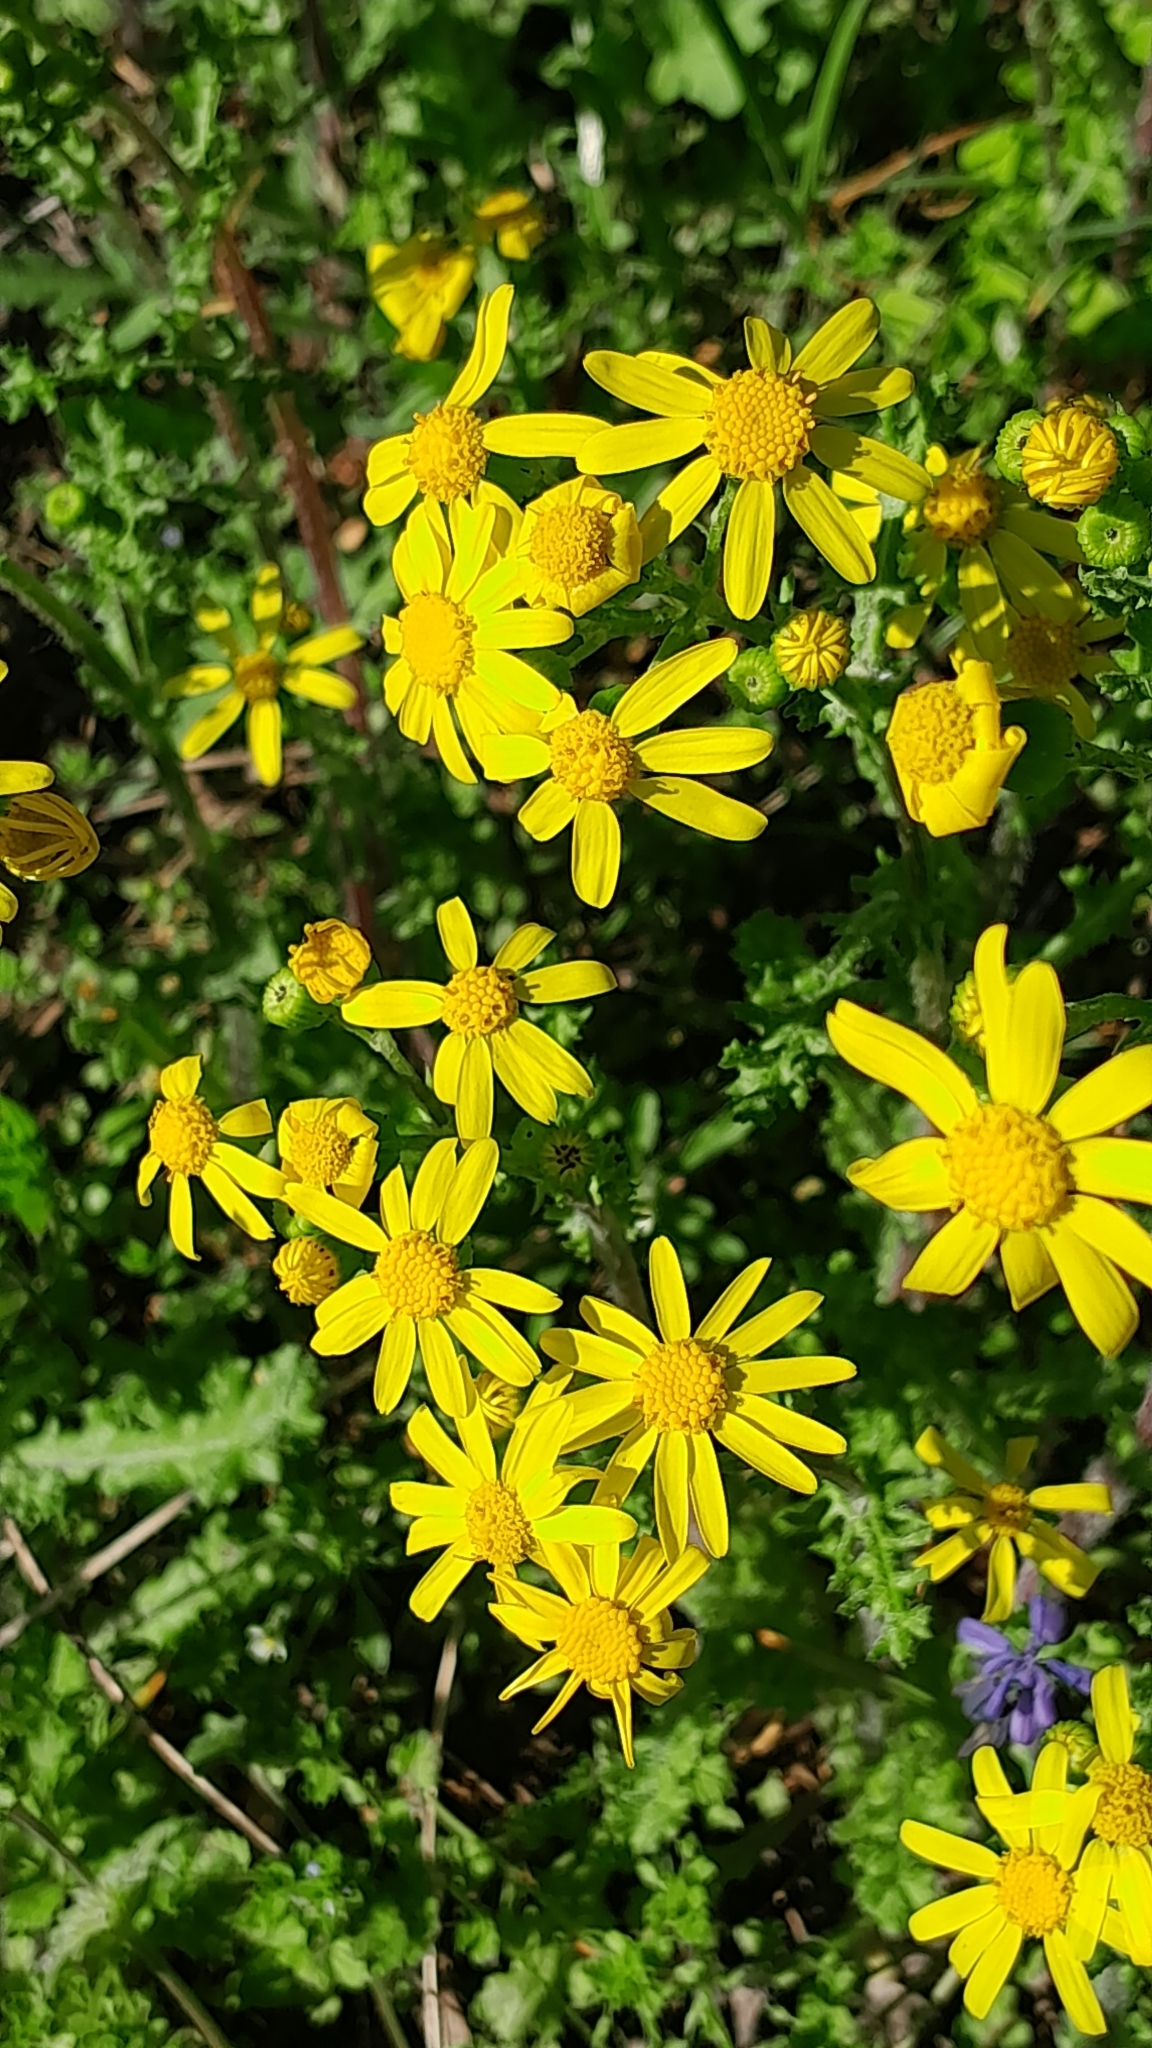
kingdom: Plantae
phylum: Tracheophyta
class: Magnoliopsida
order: Asterales
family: Asteraceae
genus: Senecio
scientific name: Senecio vernalis
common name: Eastern groundsel
